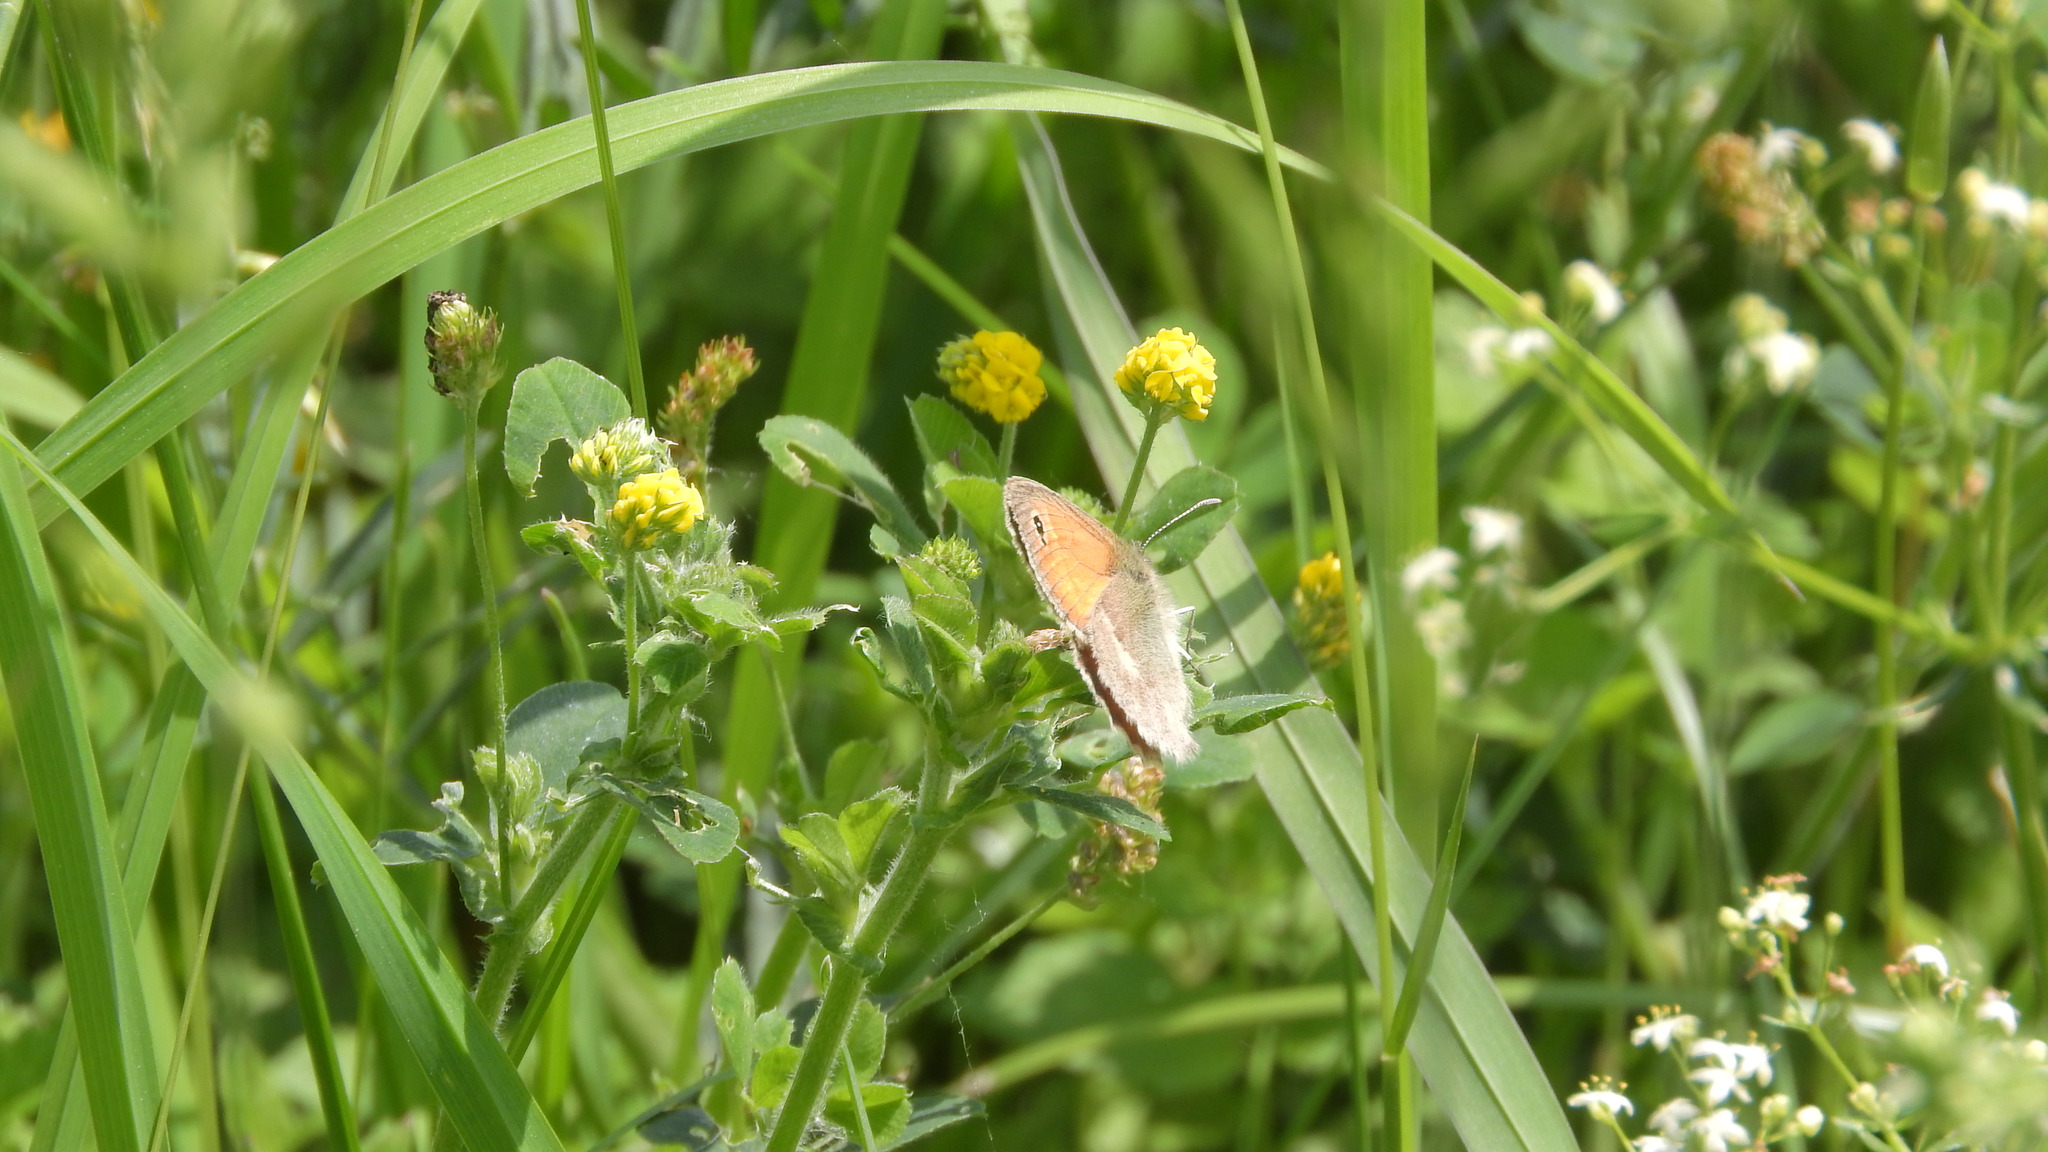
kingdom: Animalia
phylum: Arthropoda
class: Insecta
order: Lepidoptera
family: Nymphalidae
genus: Coenonympha
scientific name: Coenonympha pamphilus
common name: Small heath
